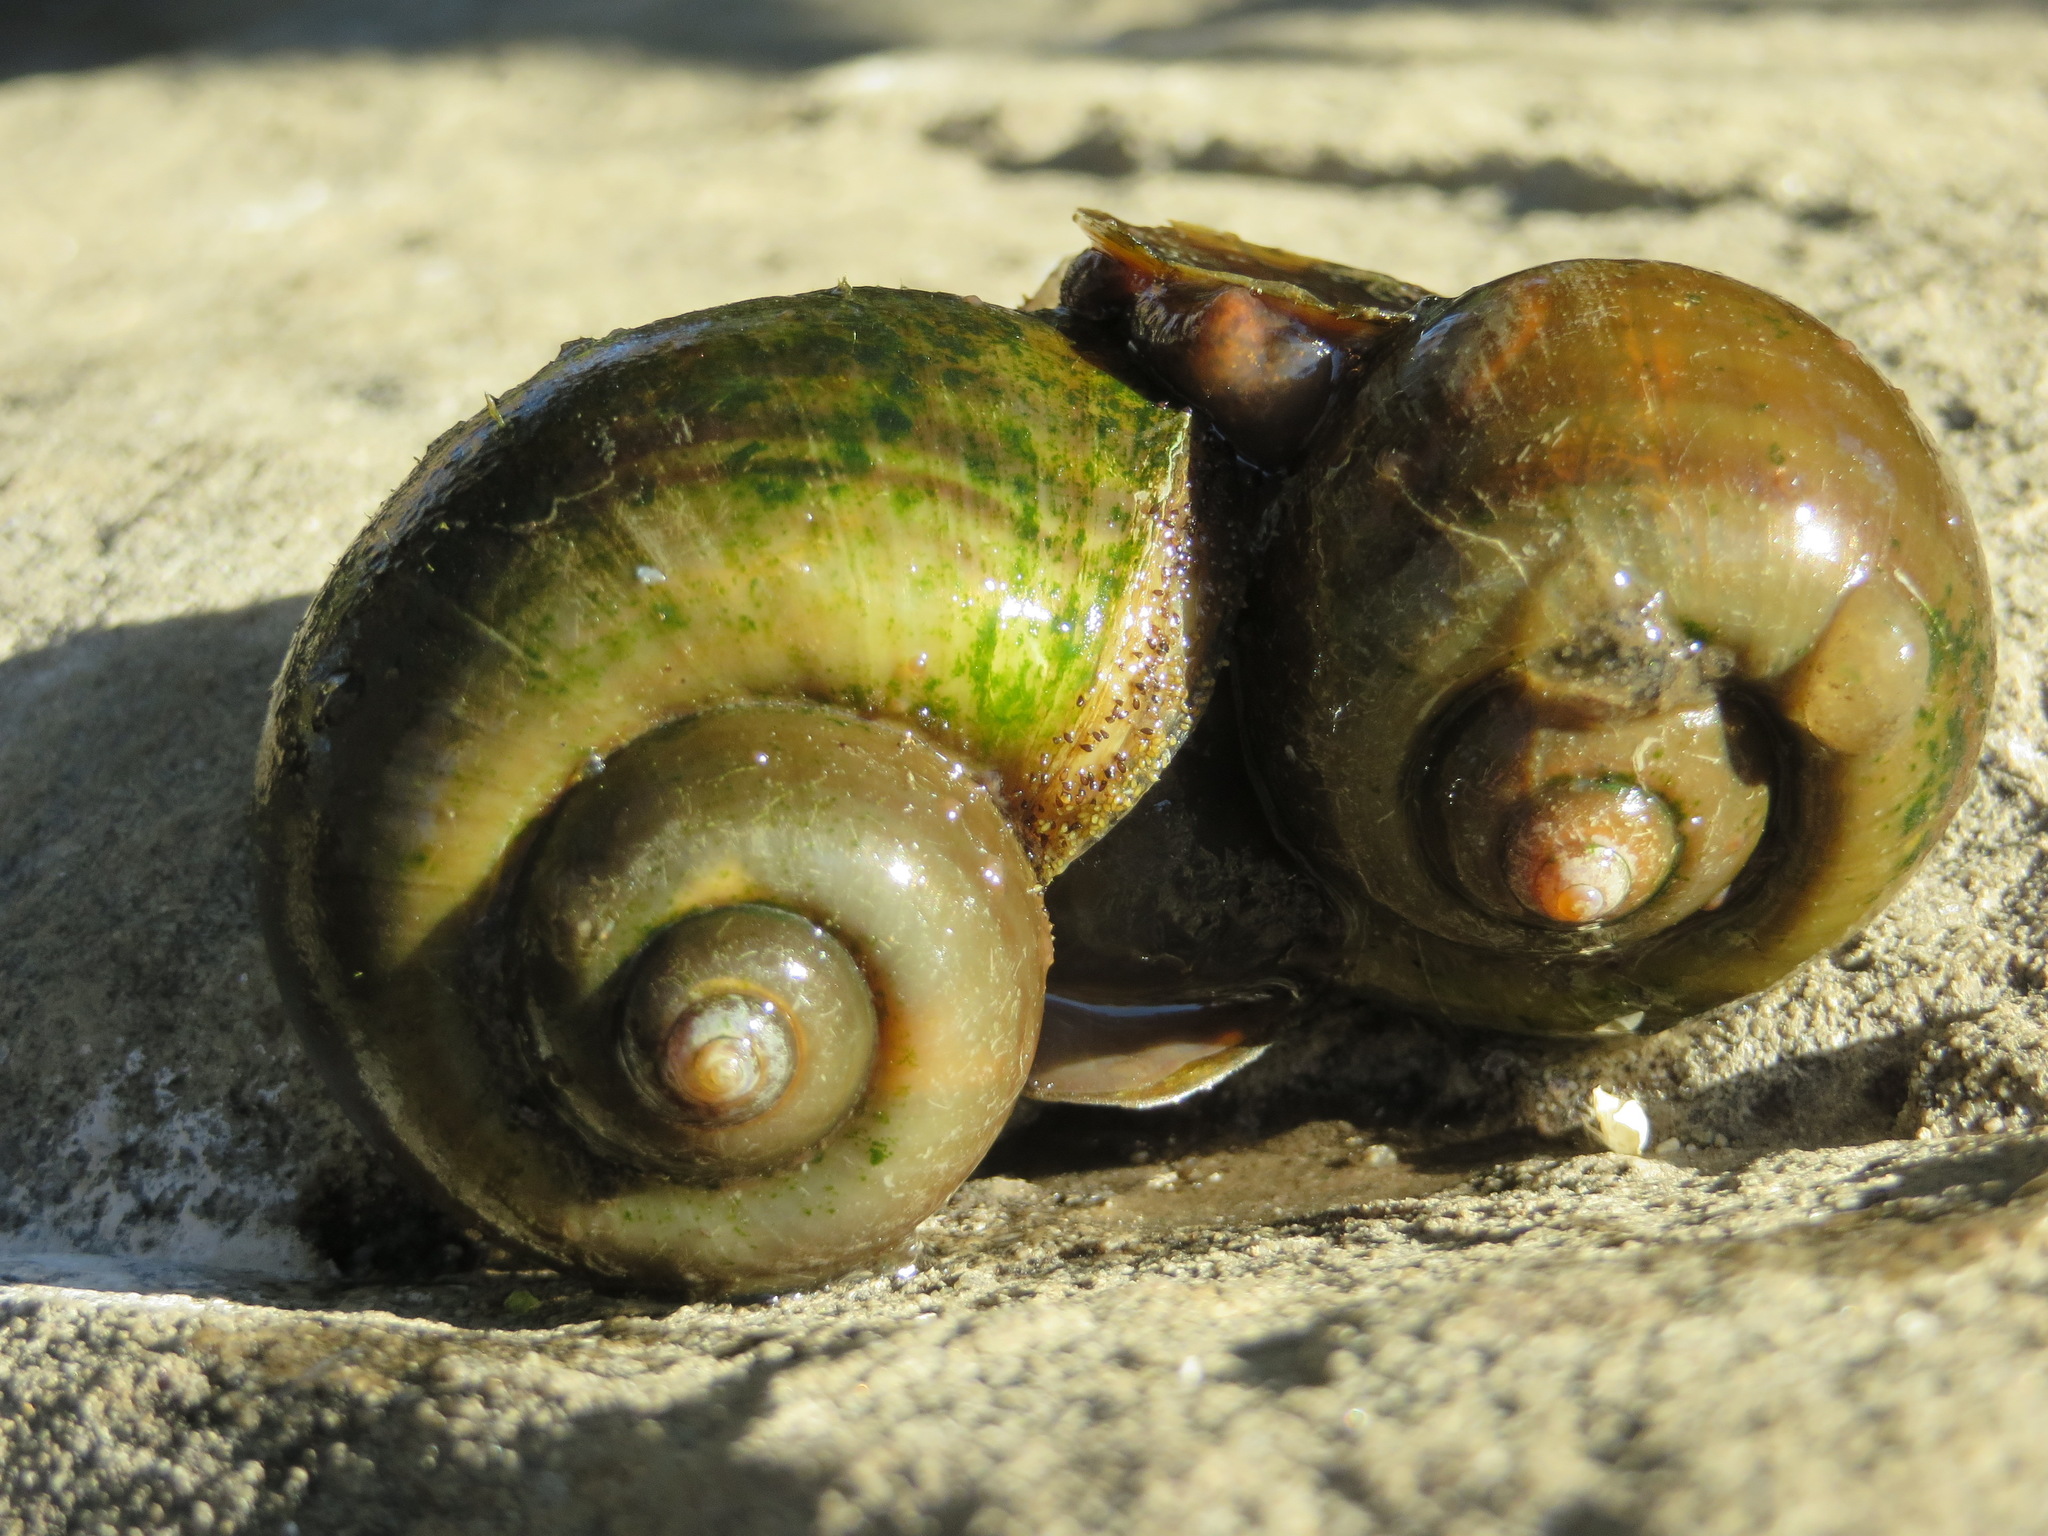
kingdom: Animalia
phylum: Mollusca
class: Gastropoda
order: Architaenioglossa
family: Ampullariidae
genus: Pomacea
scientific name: Pomacea canaliculata
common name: Channeled applesnail
